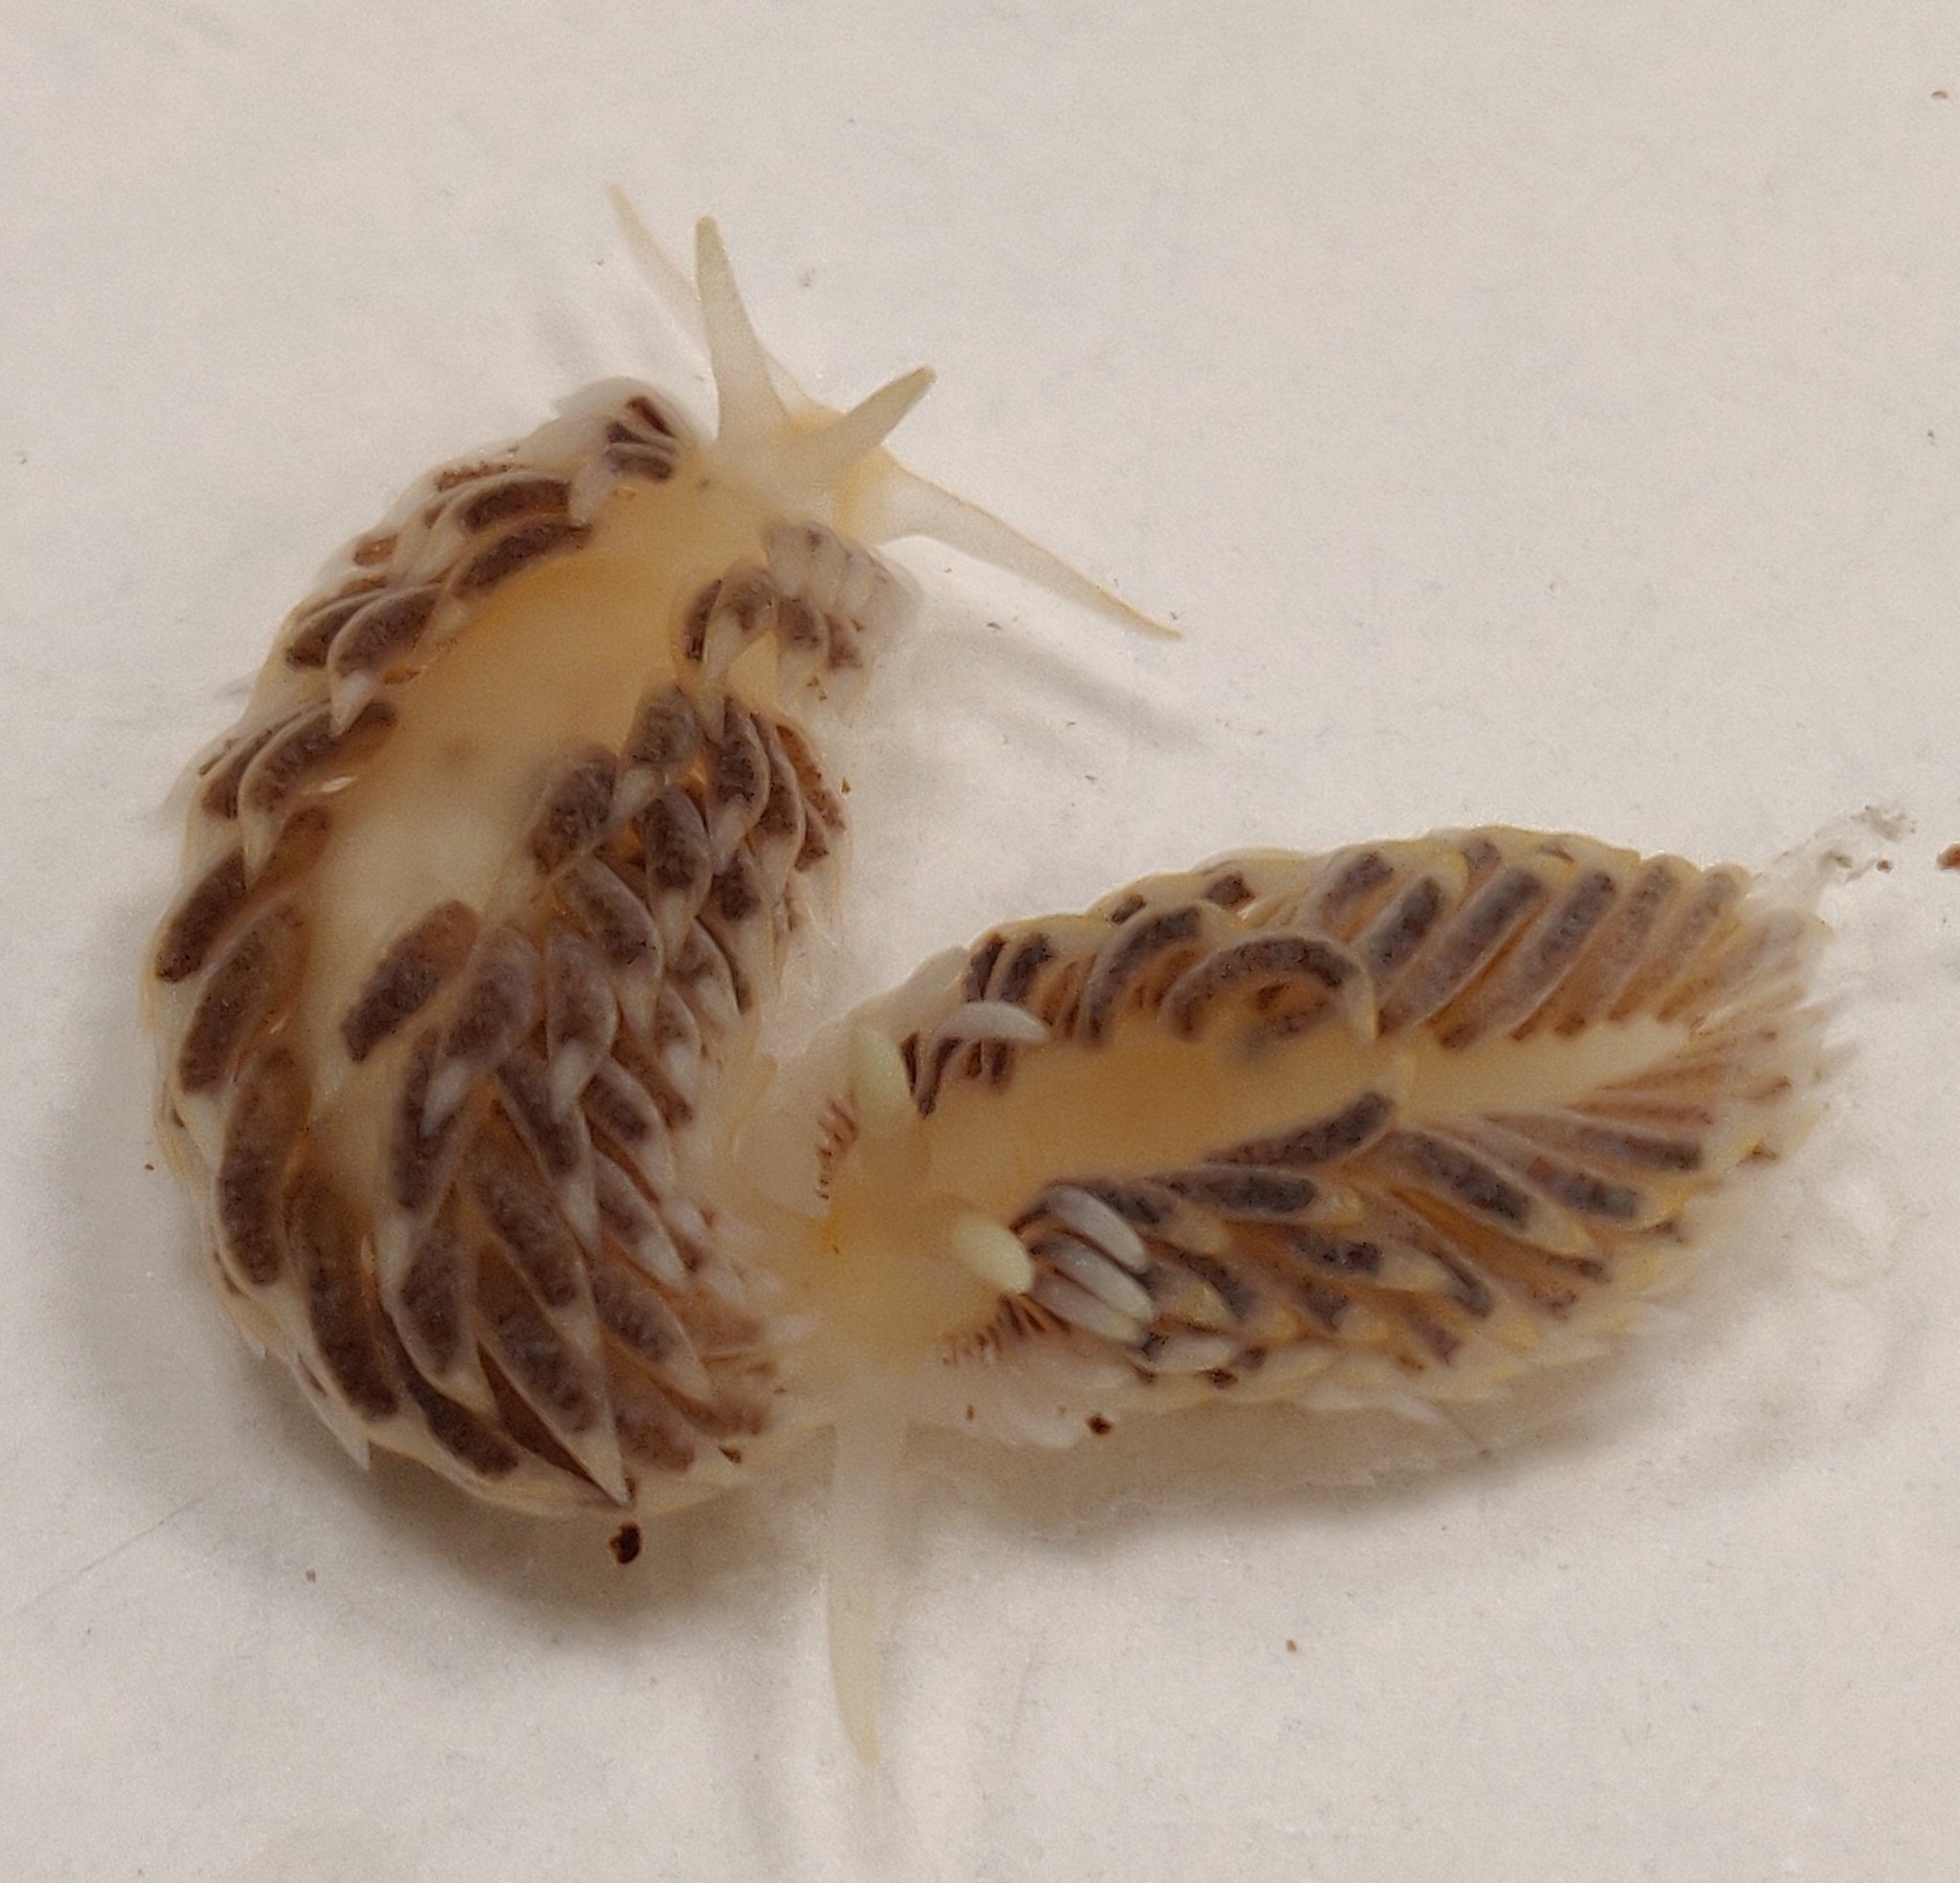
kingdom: Animalia
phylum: Mollusca
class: Gastropoda
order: Nudibranchia
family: Aeolidiidae
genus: Aeolidiella
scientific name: Aeolidiella alderi
